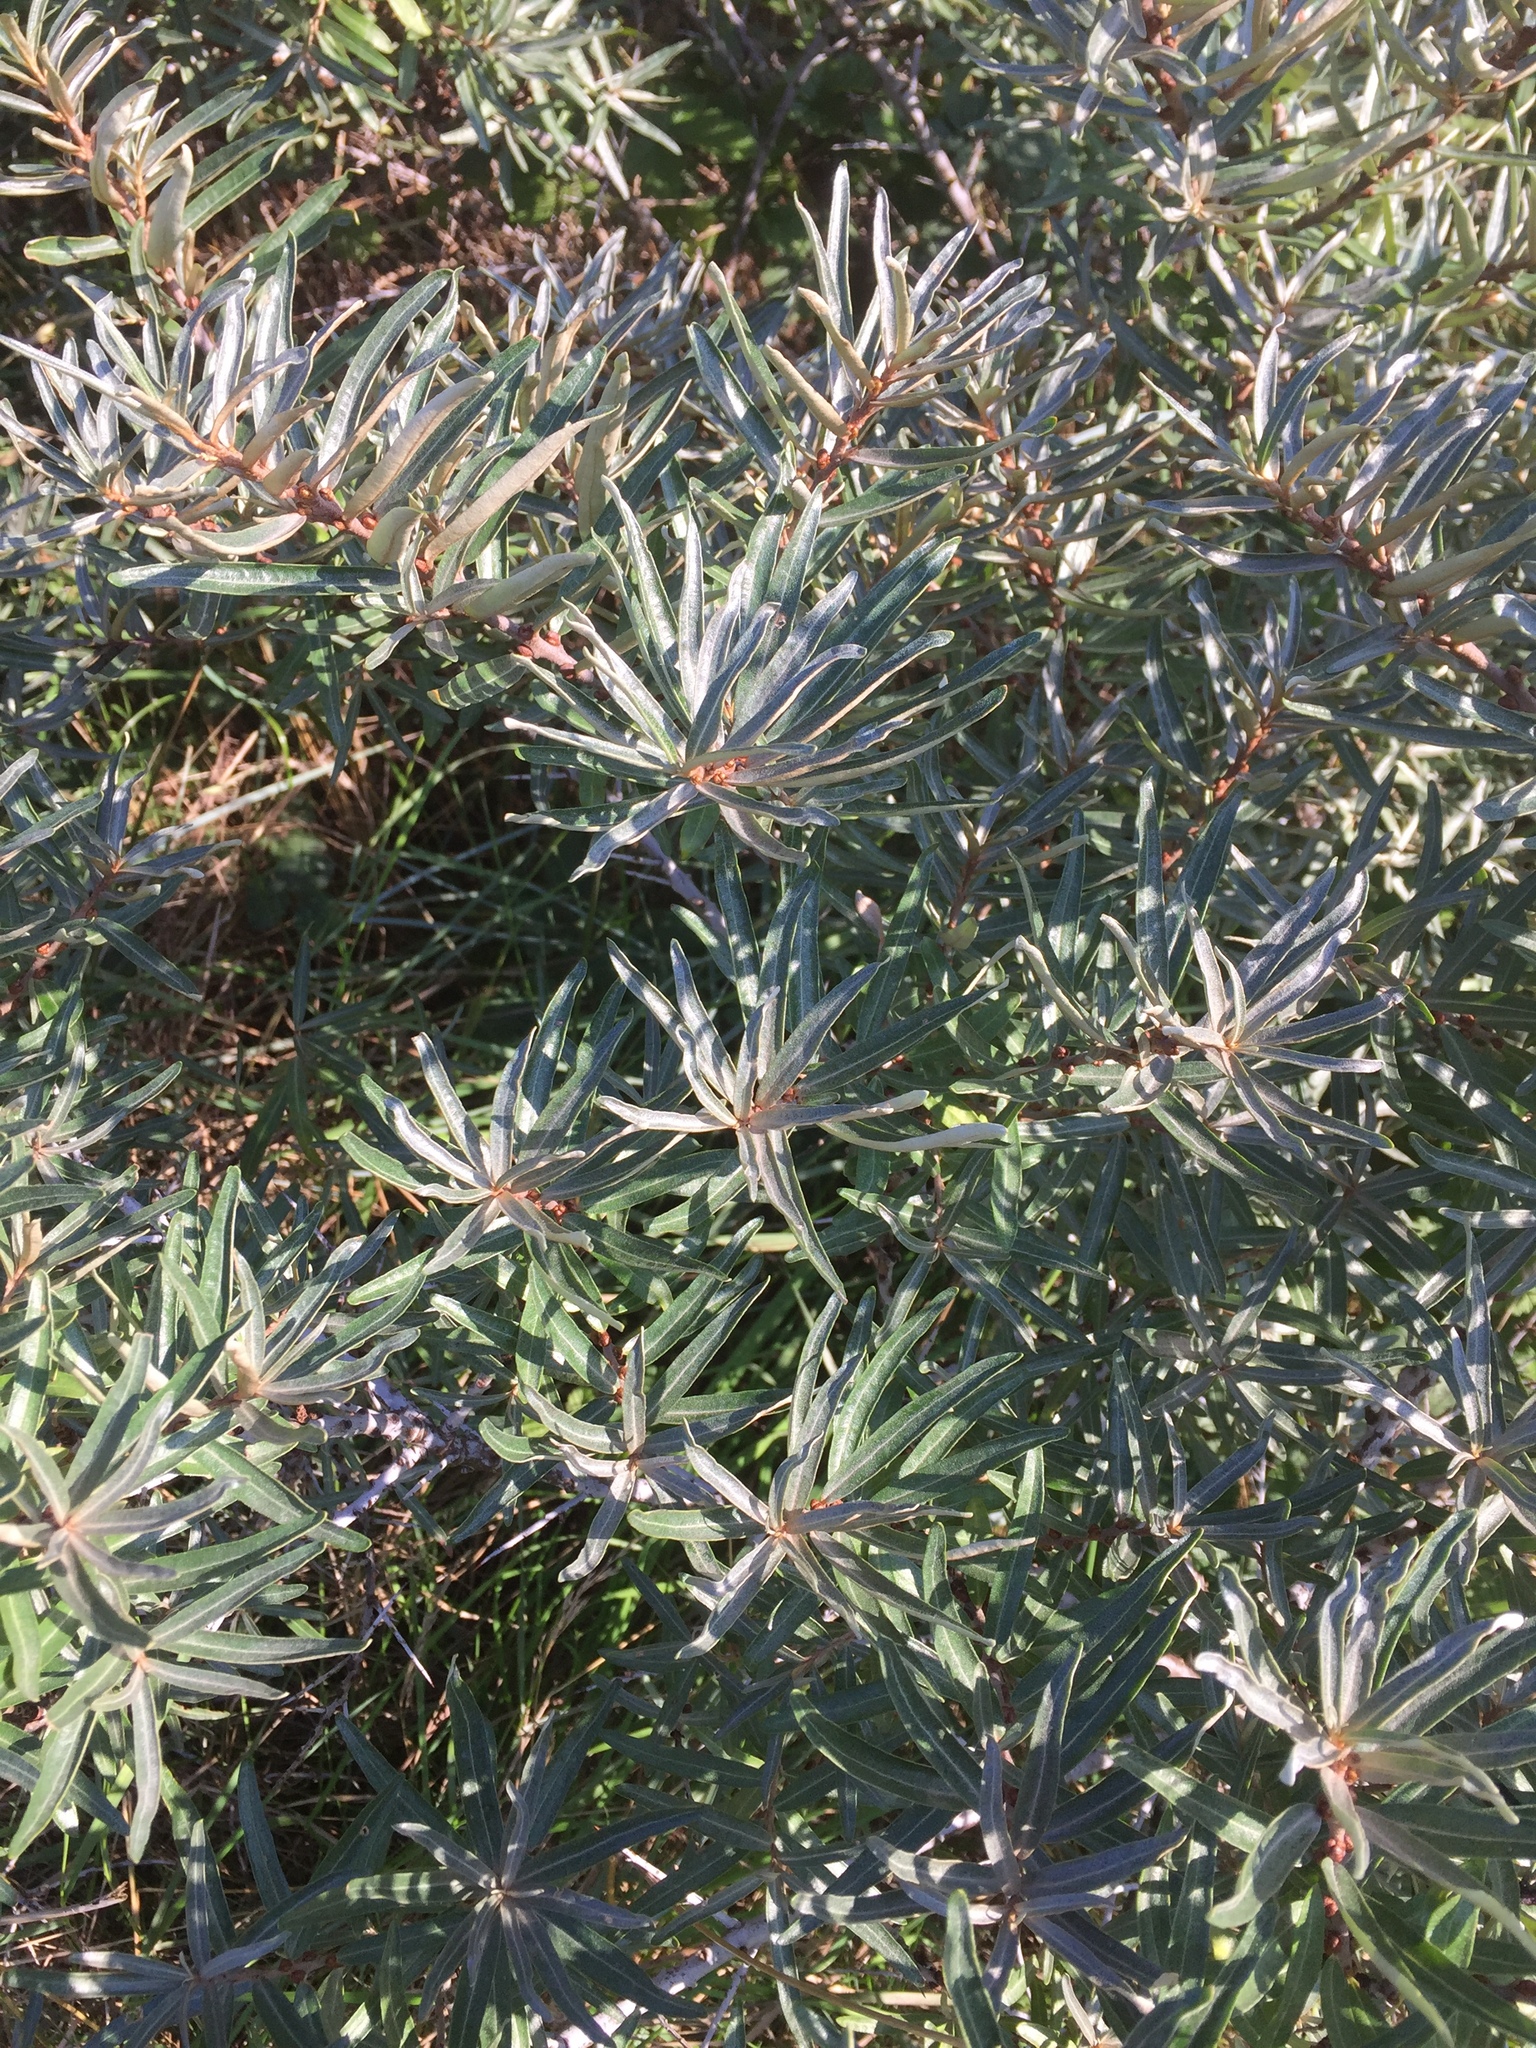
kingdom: Plantae
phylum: Tracheophyta
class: Magnoliopsida
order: Rosales
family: Elaeagnaceae
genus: Hippophae
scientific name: Hippophae rhamnoides
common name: Sea-buckthorn
